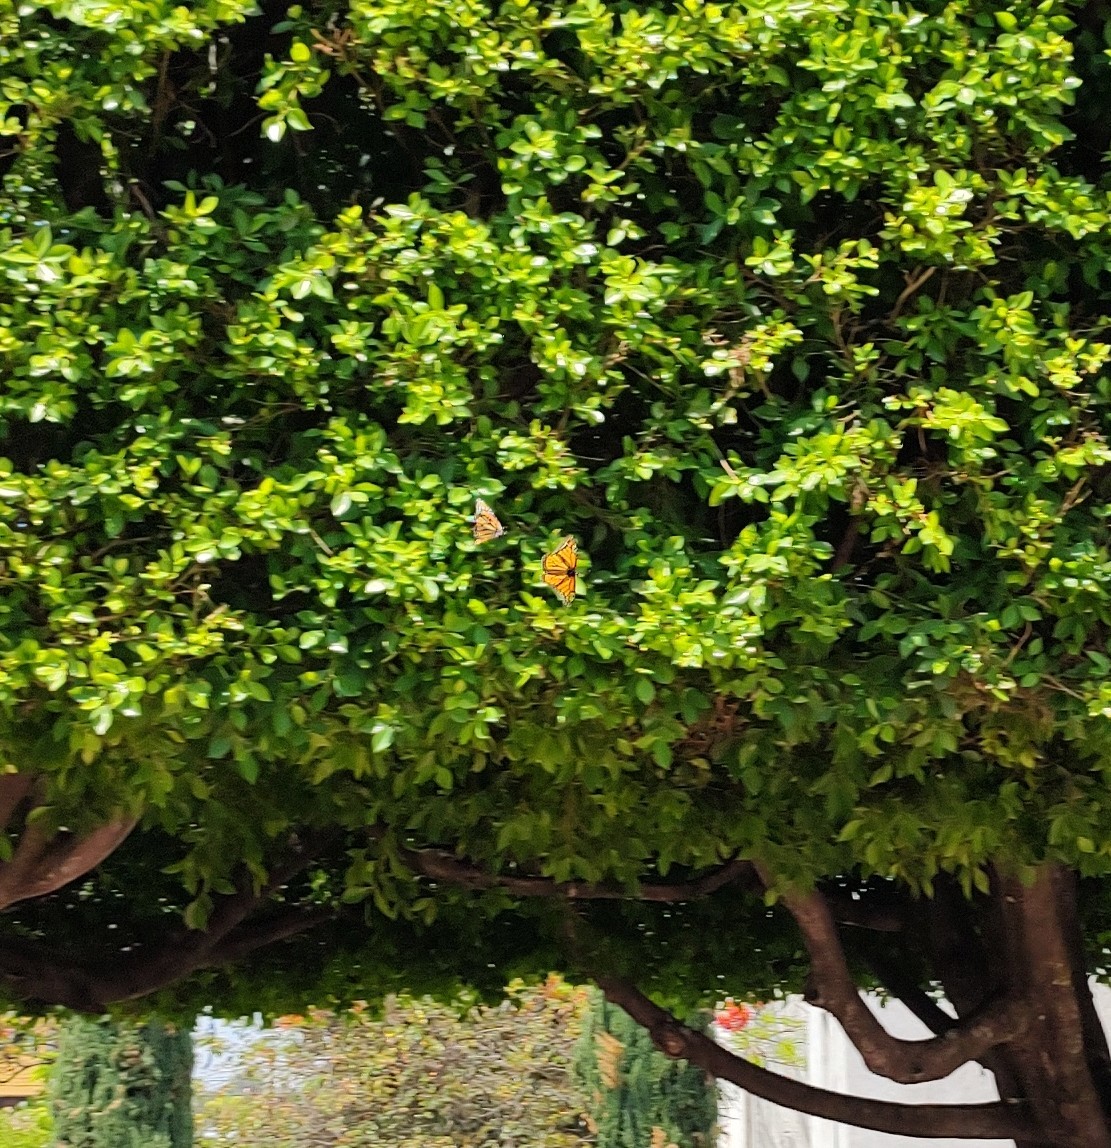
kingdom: Animalia
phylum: Arthropoda
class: Insecta
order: Lepidoptera
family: Nymphalidae
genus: Danaus
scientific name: Danaus plexippus
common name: Monarch
